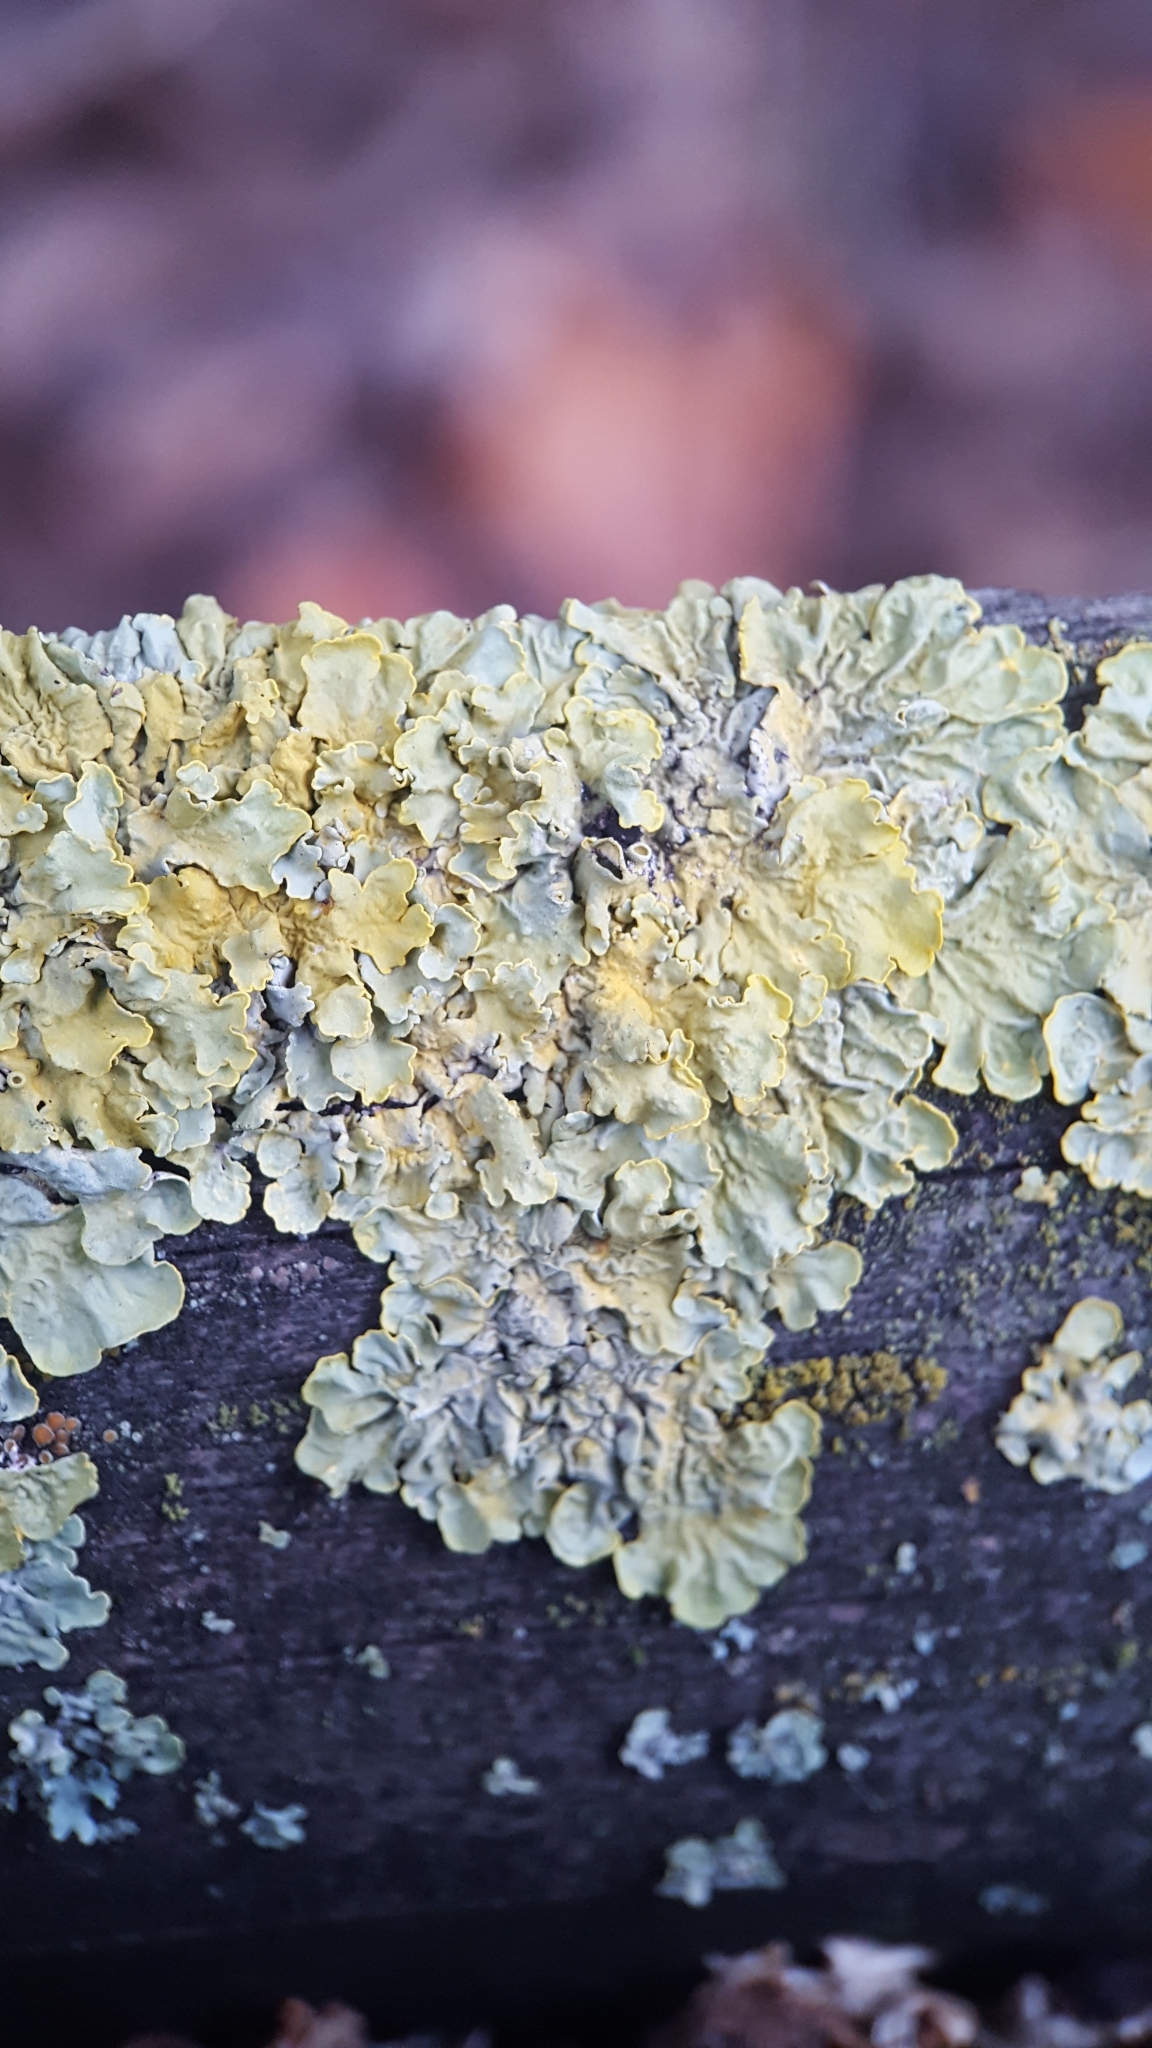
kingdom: Fungi
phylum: Ascomycota
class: Lecanoromycetes
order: Teloschistales
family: Teloschistaceae
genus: Xanthoria
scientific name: Xanthoria parietina
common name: Common orange lichen
